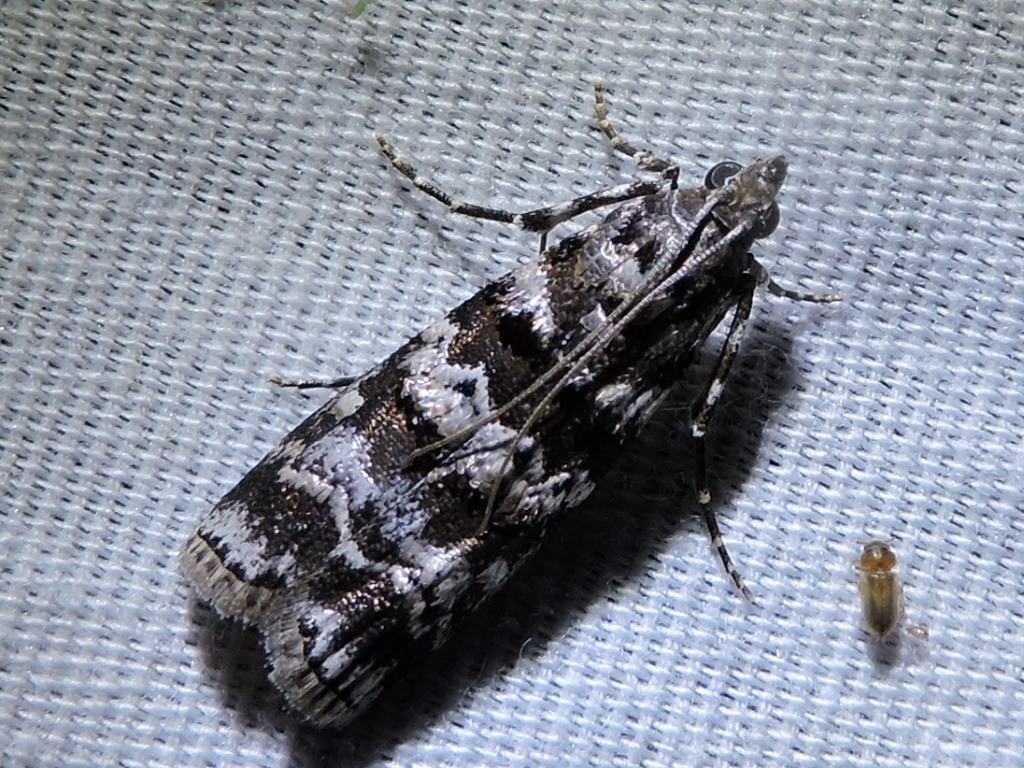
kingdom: Animalia
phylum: Arthropoda
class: Insecta
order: Lepidoptera
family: Pyralidae
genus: Dioryctria
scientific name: Dioryctria amatella
